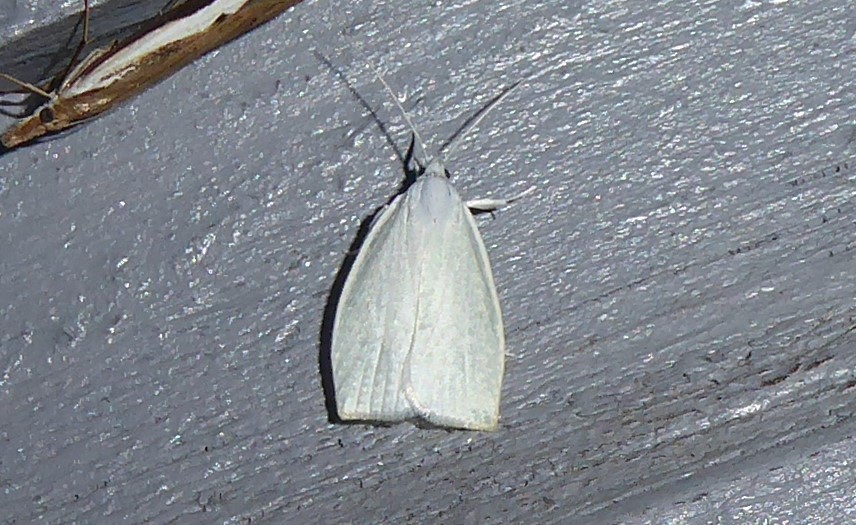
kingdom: Animalia
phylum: Arthropoda
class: Insecta
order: Lepidoptera
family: Oecophoridae
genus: Nymphostola
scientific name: Nymphostola galactina
